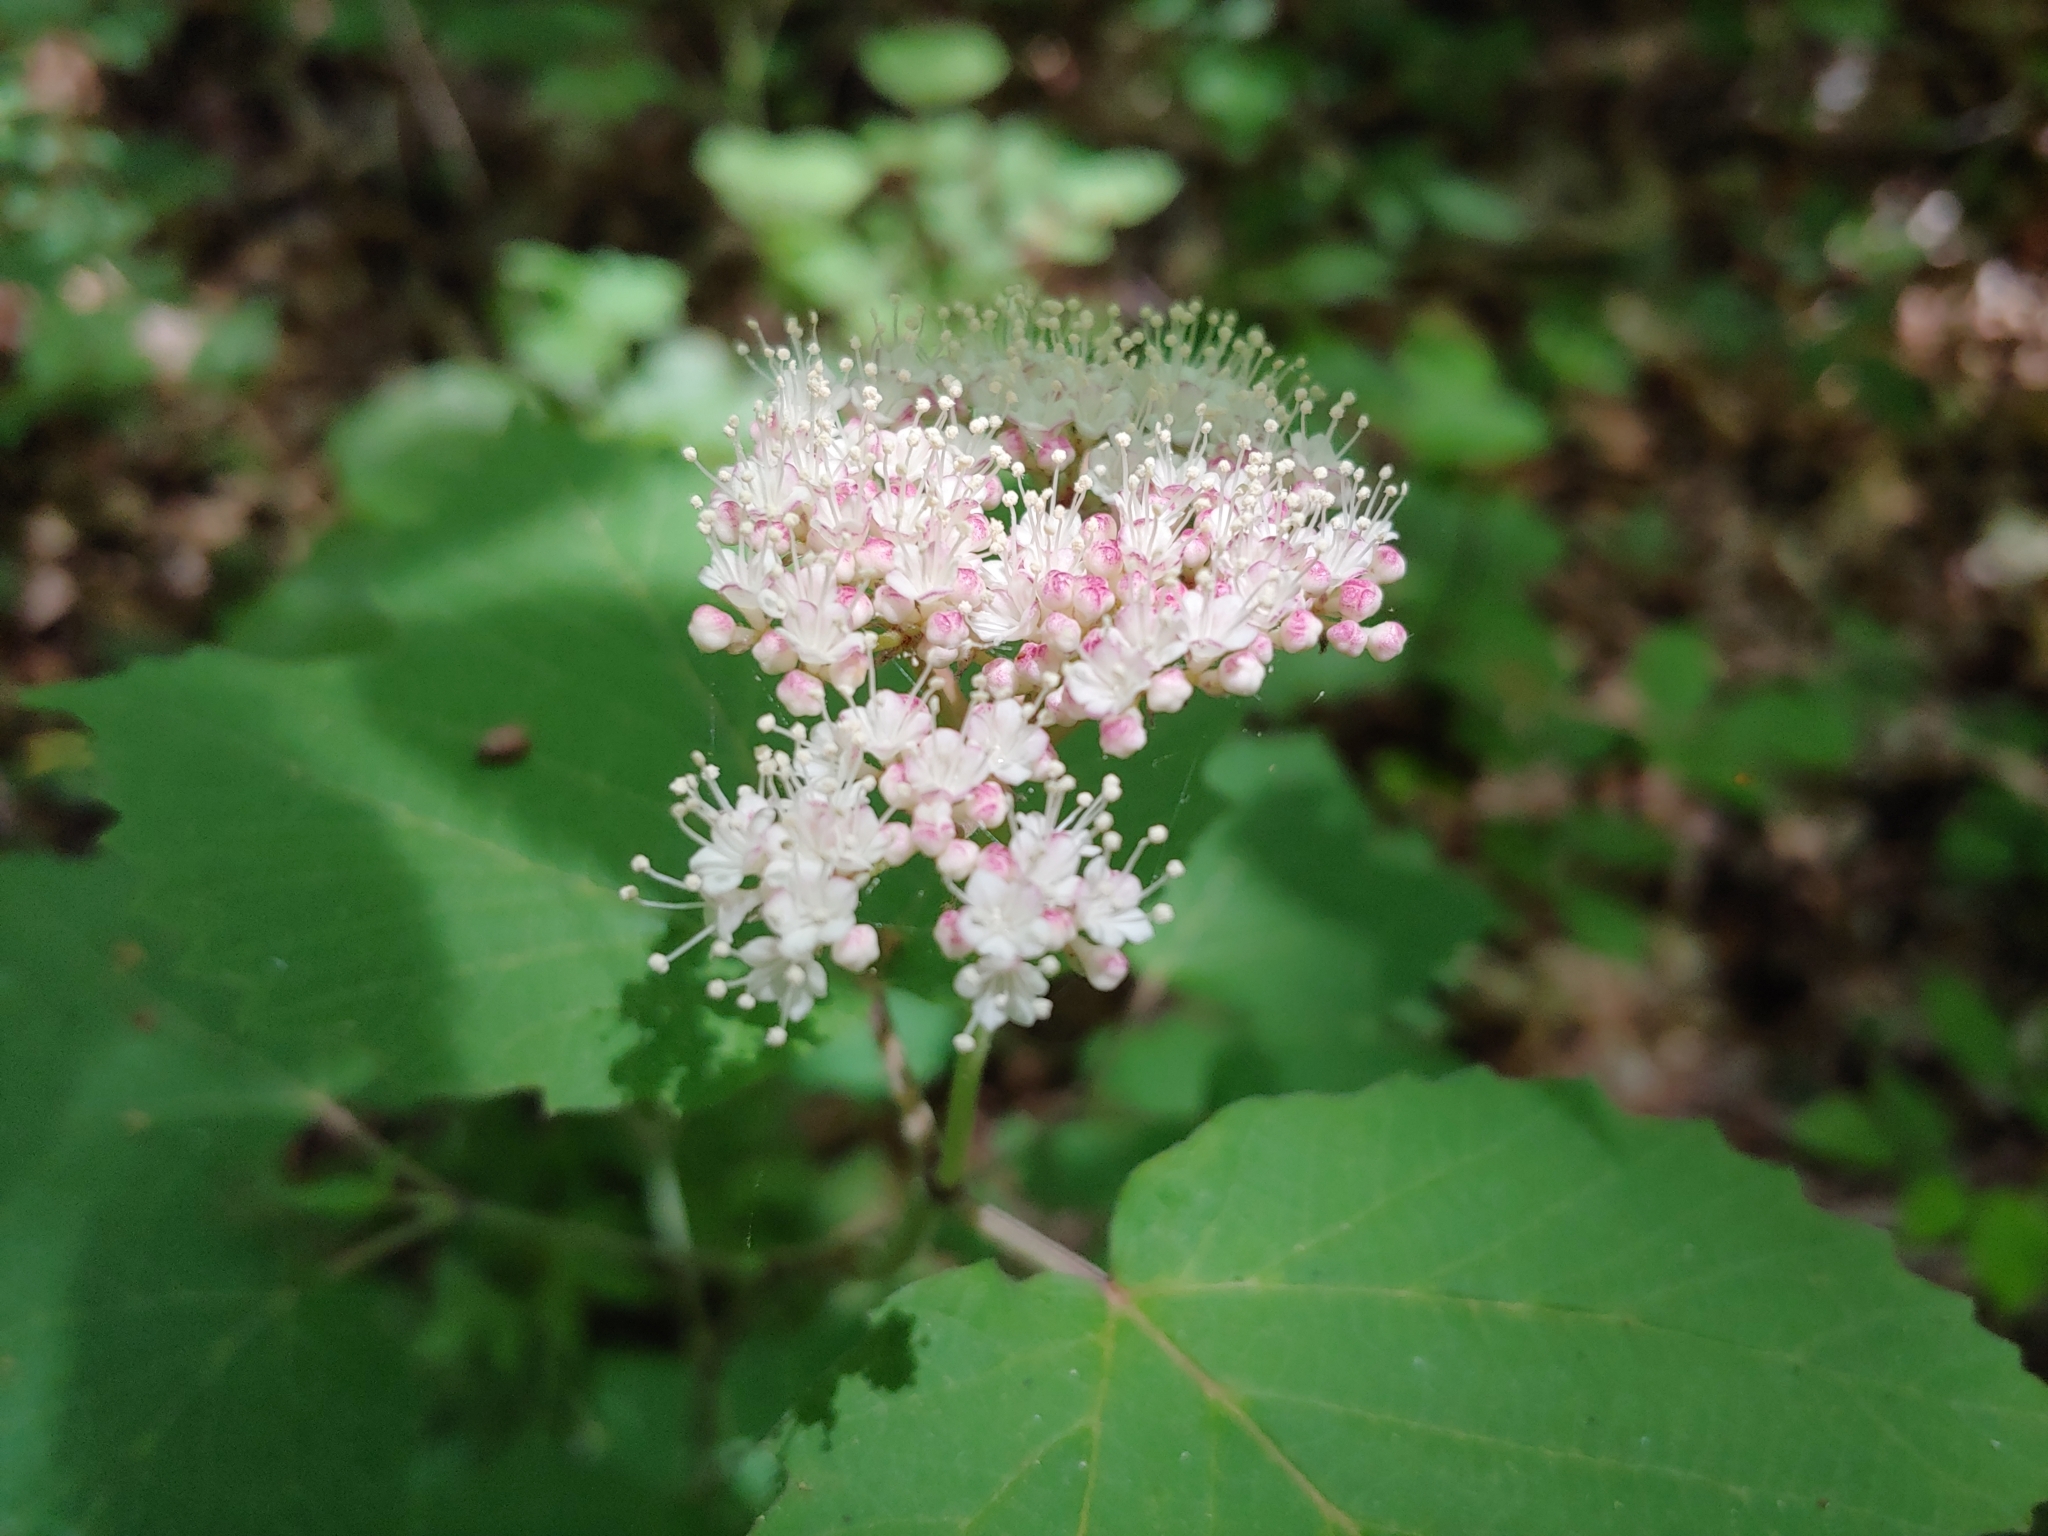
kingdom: Plantae
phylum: Tracheophyta
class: Magnoliopsida
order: Dipsacales
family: Viburnaceae
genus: Viburnum
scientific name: Viburnum acerifolium
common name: Dockmackie
